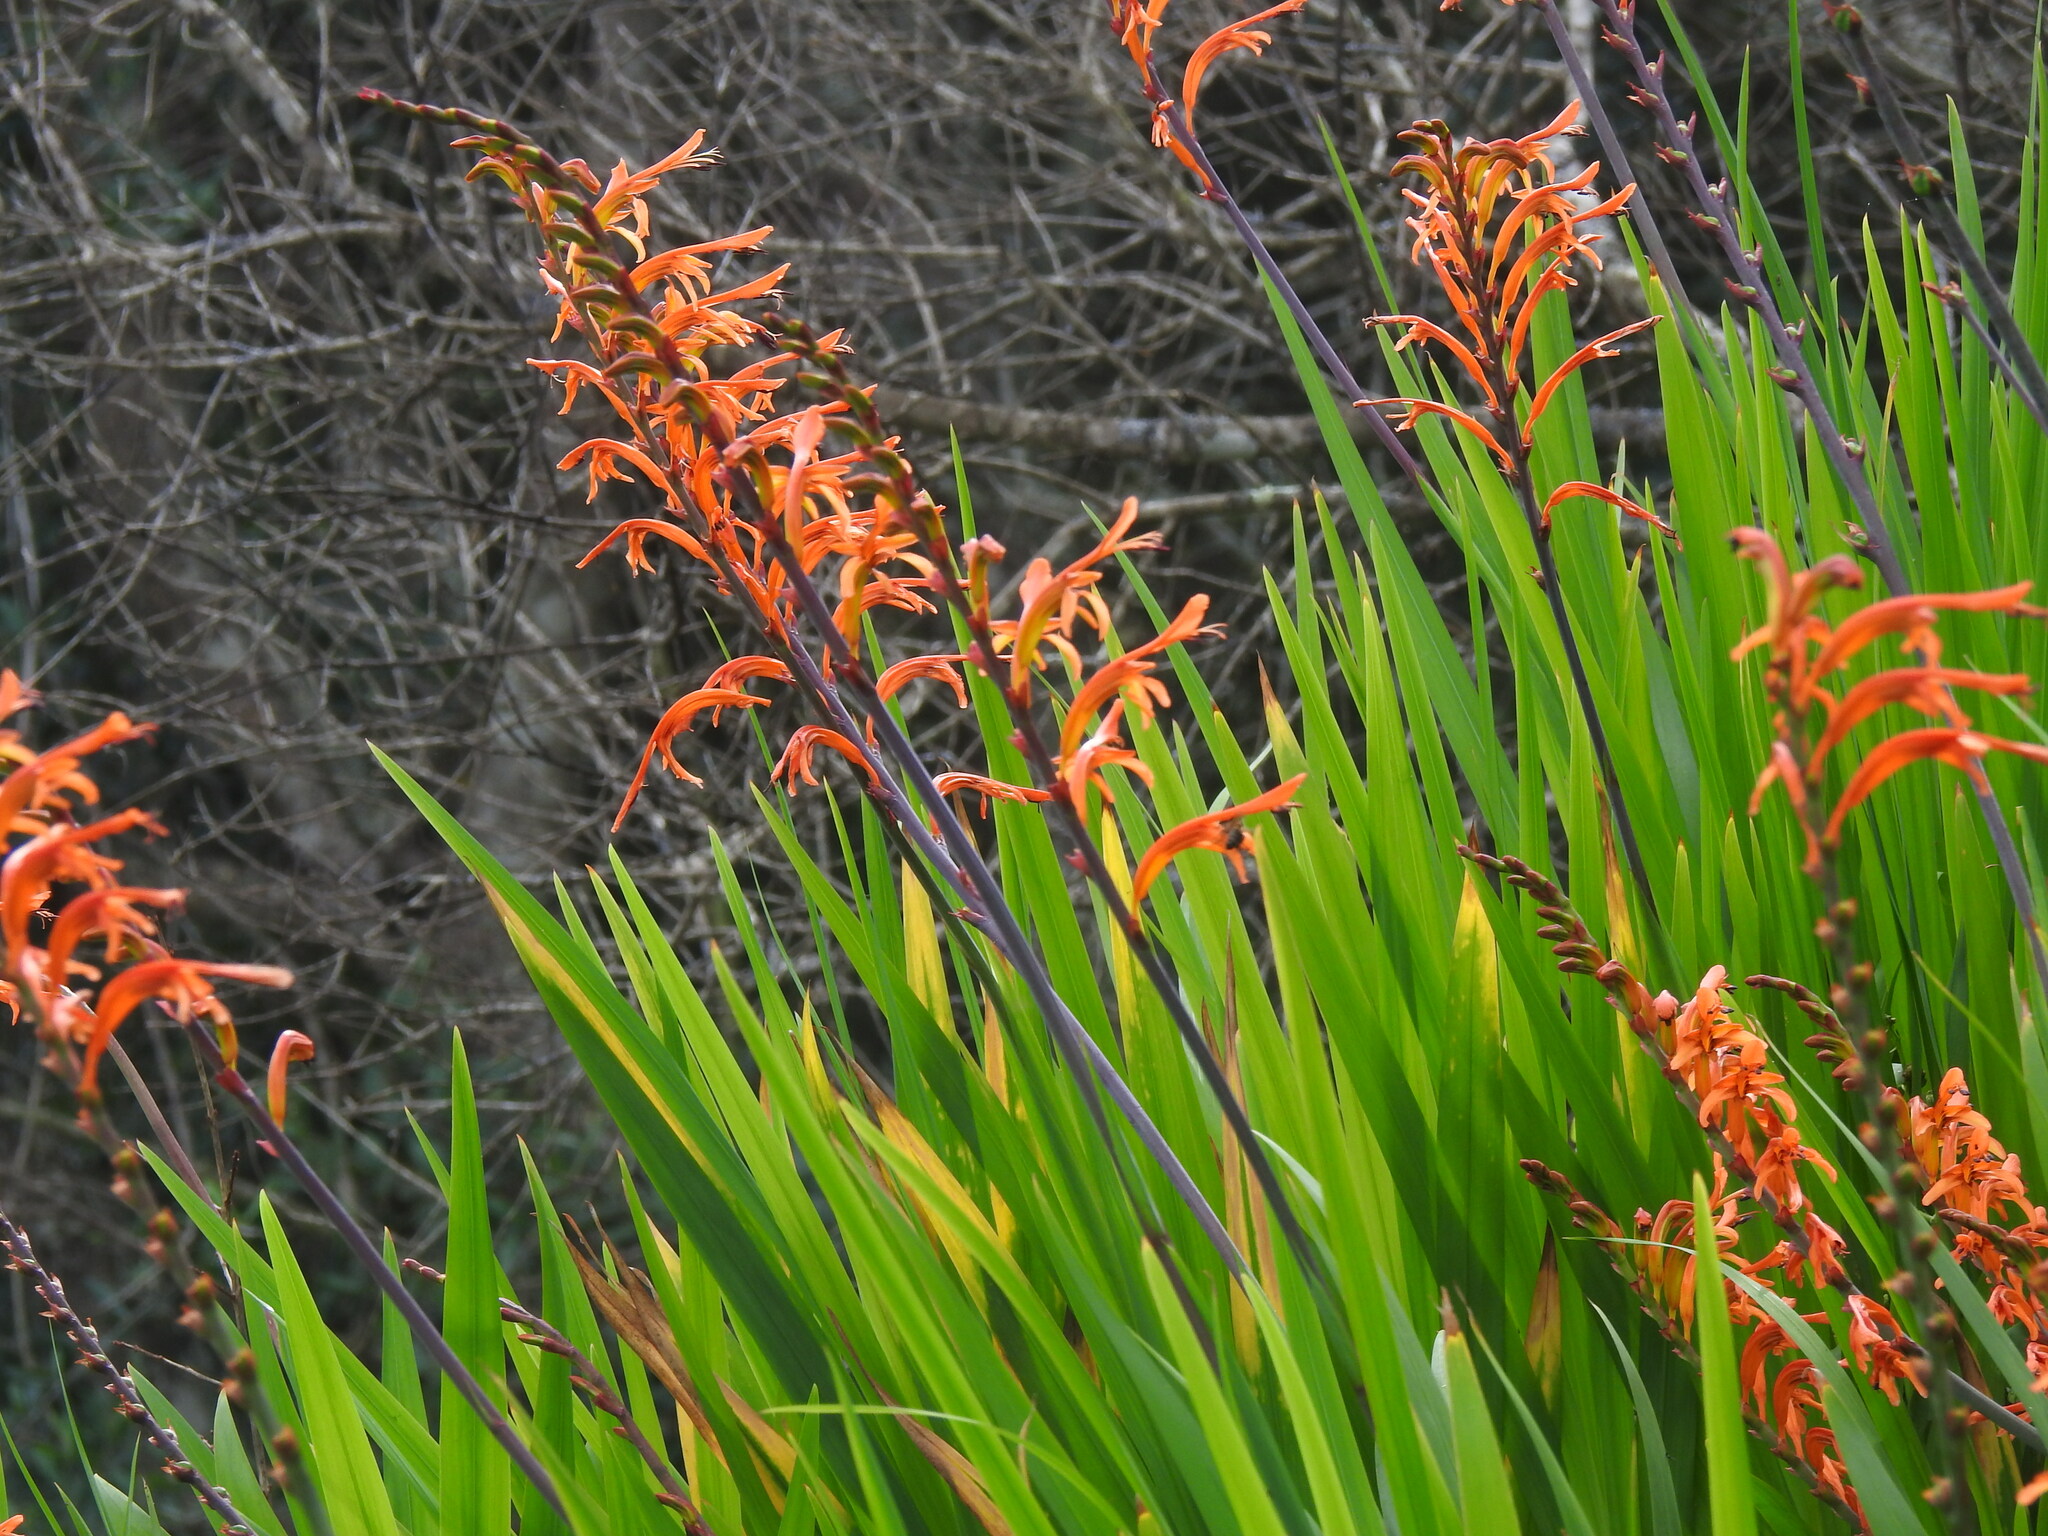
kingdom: Plantae
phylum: Tracheophyta
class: Liliopsida
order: Asparagales
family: Iridaceae
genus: Chasmanthe
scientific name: Chasmanthe floribunda
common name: African cornflag
